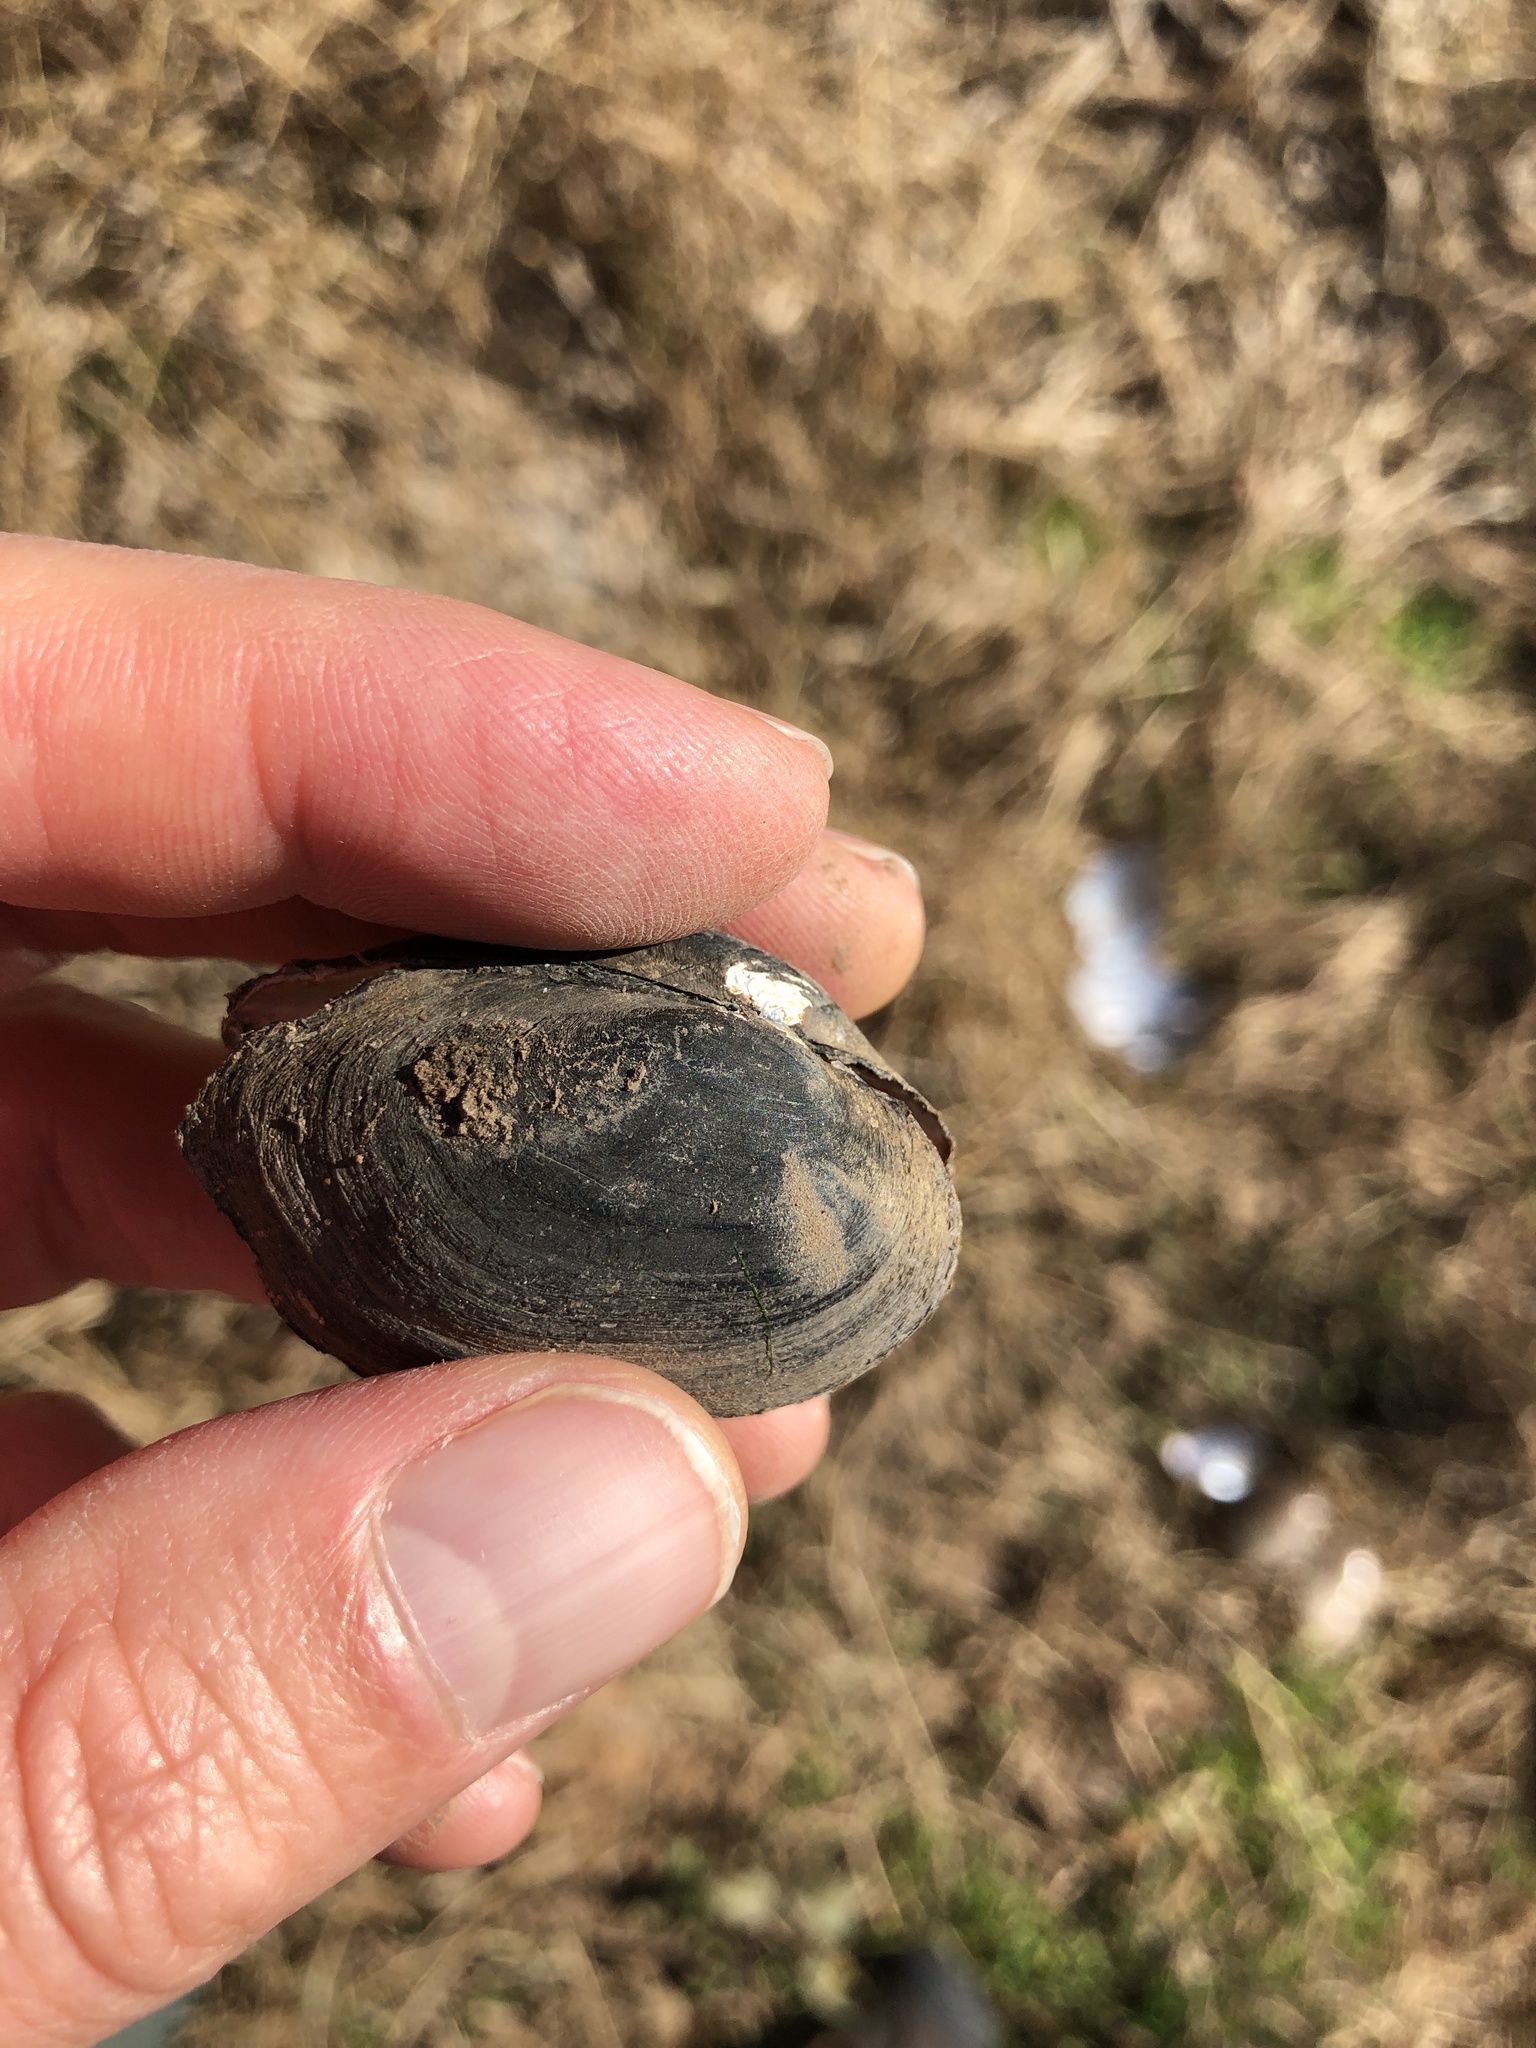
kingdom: Animalia
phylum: Mollusca
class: Bivalvia
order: Unionida
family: Unionidae
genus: Toxolasma
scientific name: Toxolasma texasiense
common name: Texas lilliput
